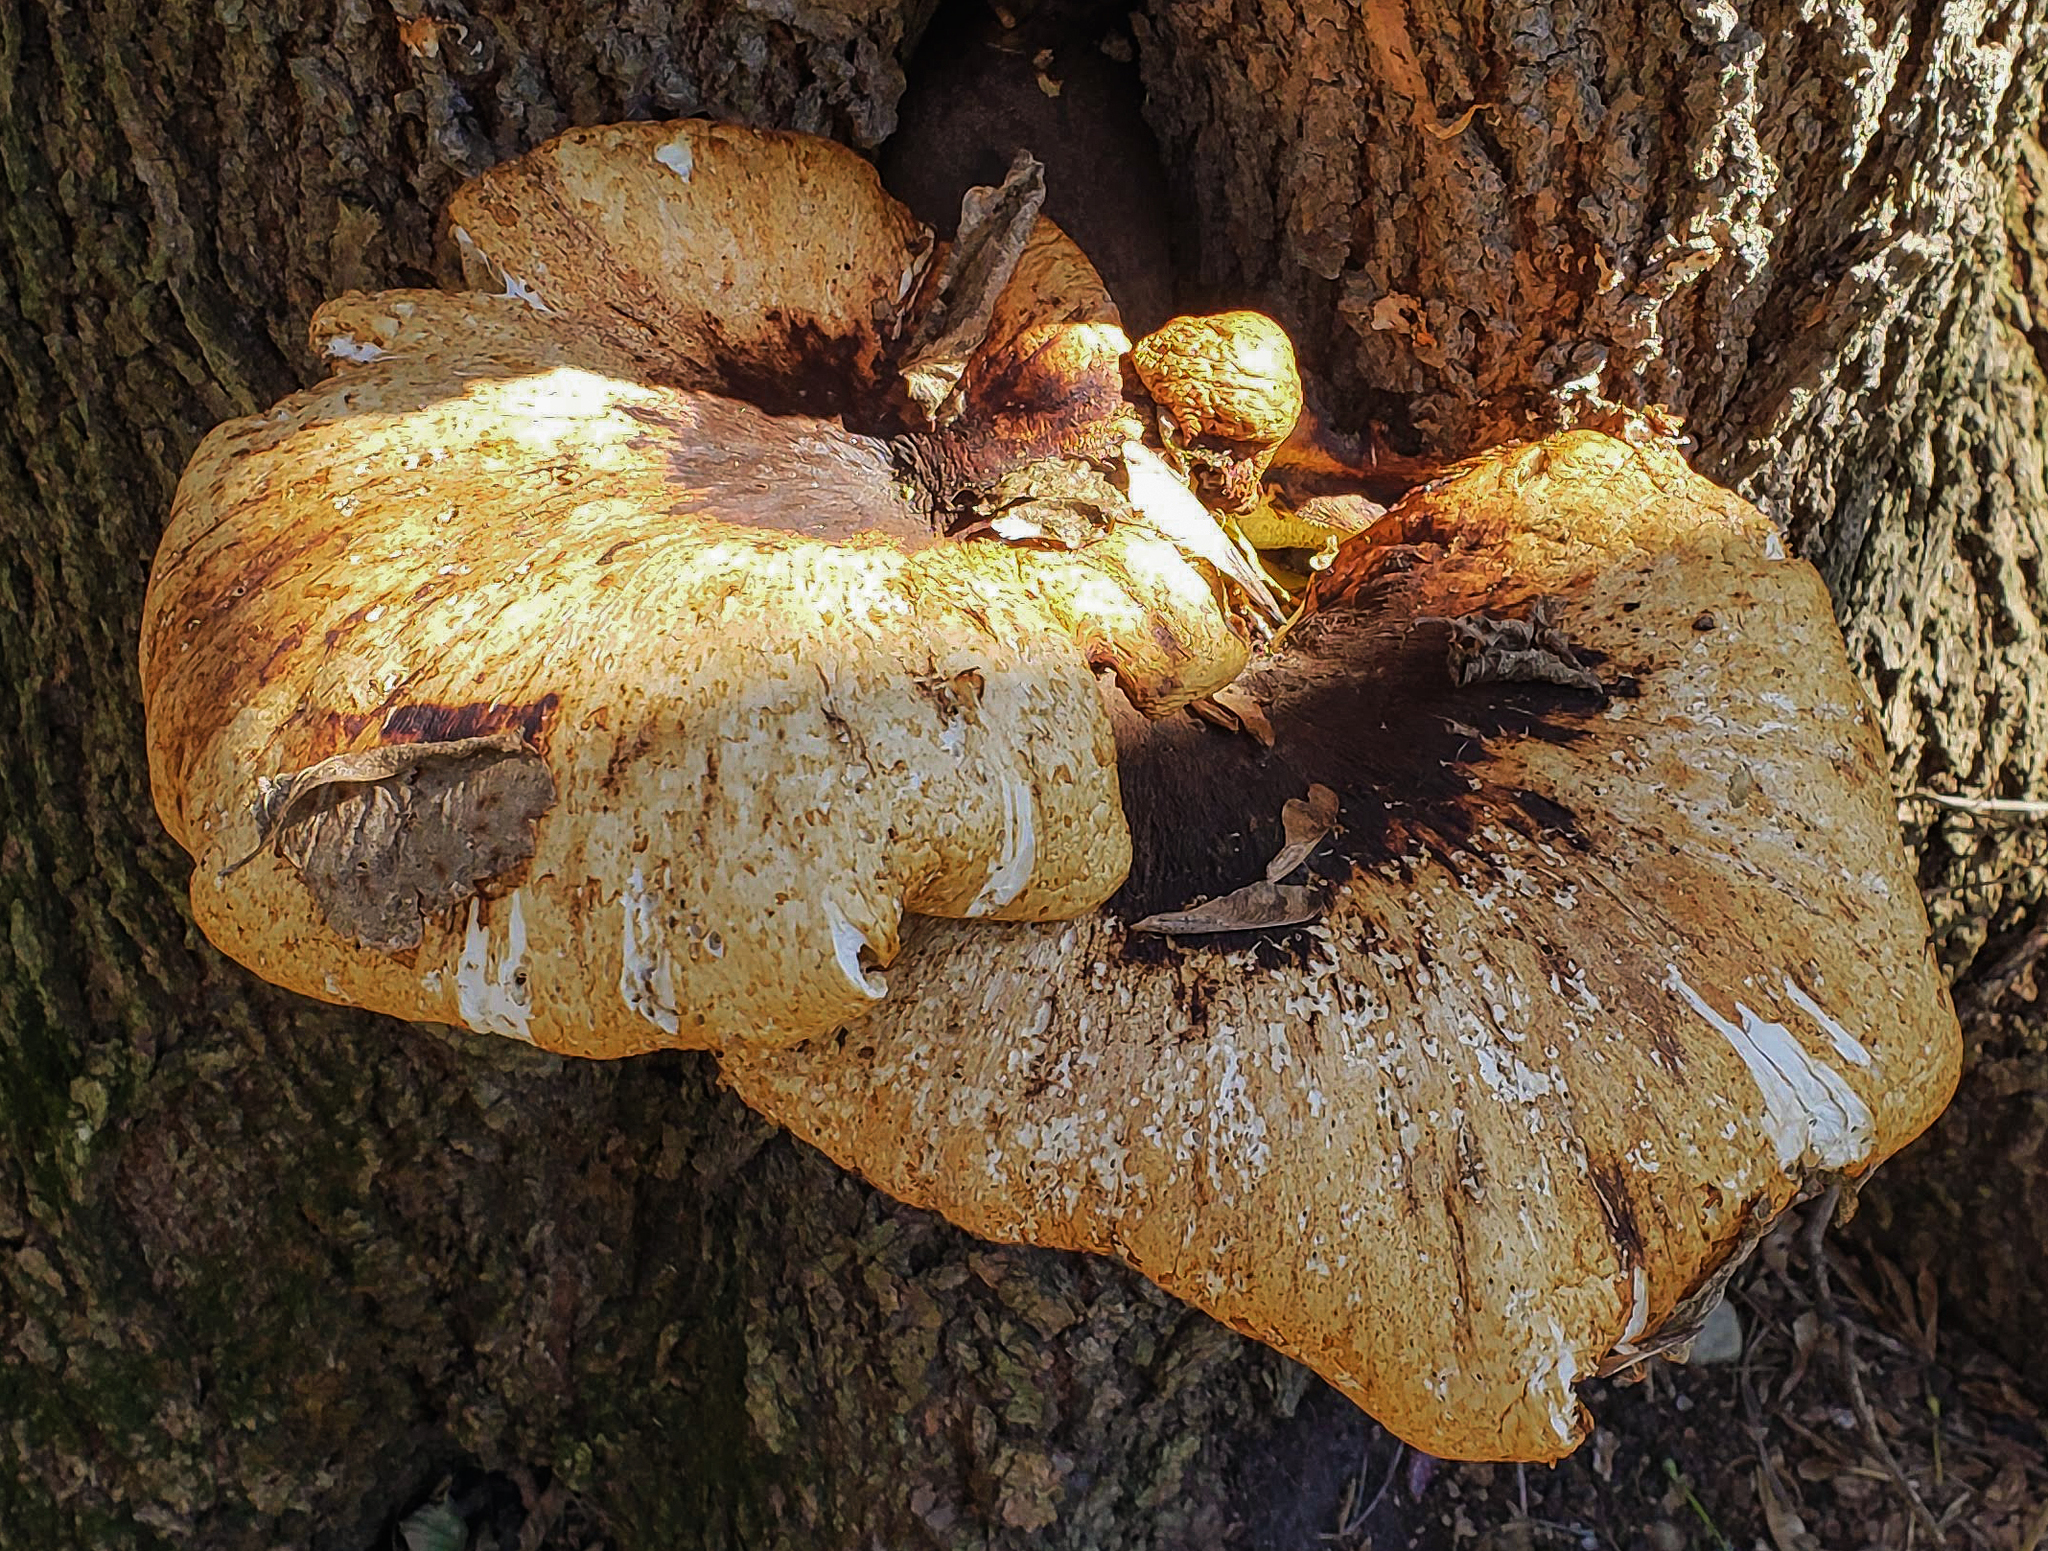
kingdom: Fungi
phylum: Basidiomycota
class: Agaricomycetes
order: Polyporales
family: Polyporaceae
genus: Cerioporus
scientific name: Cerioporus squamosus
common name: Dryad's saddle
